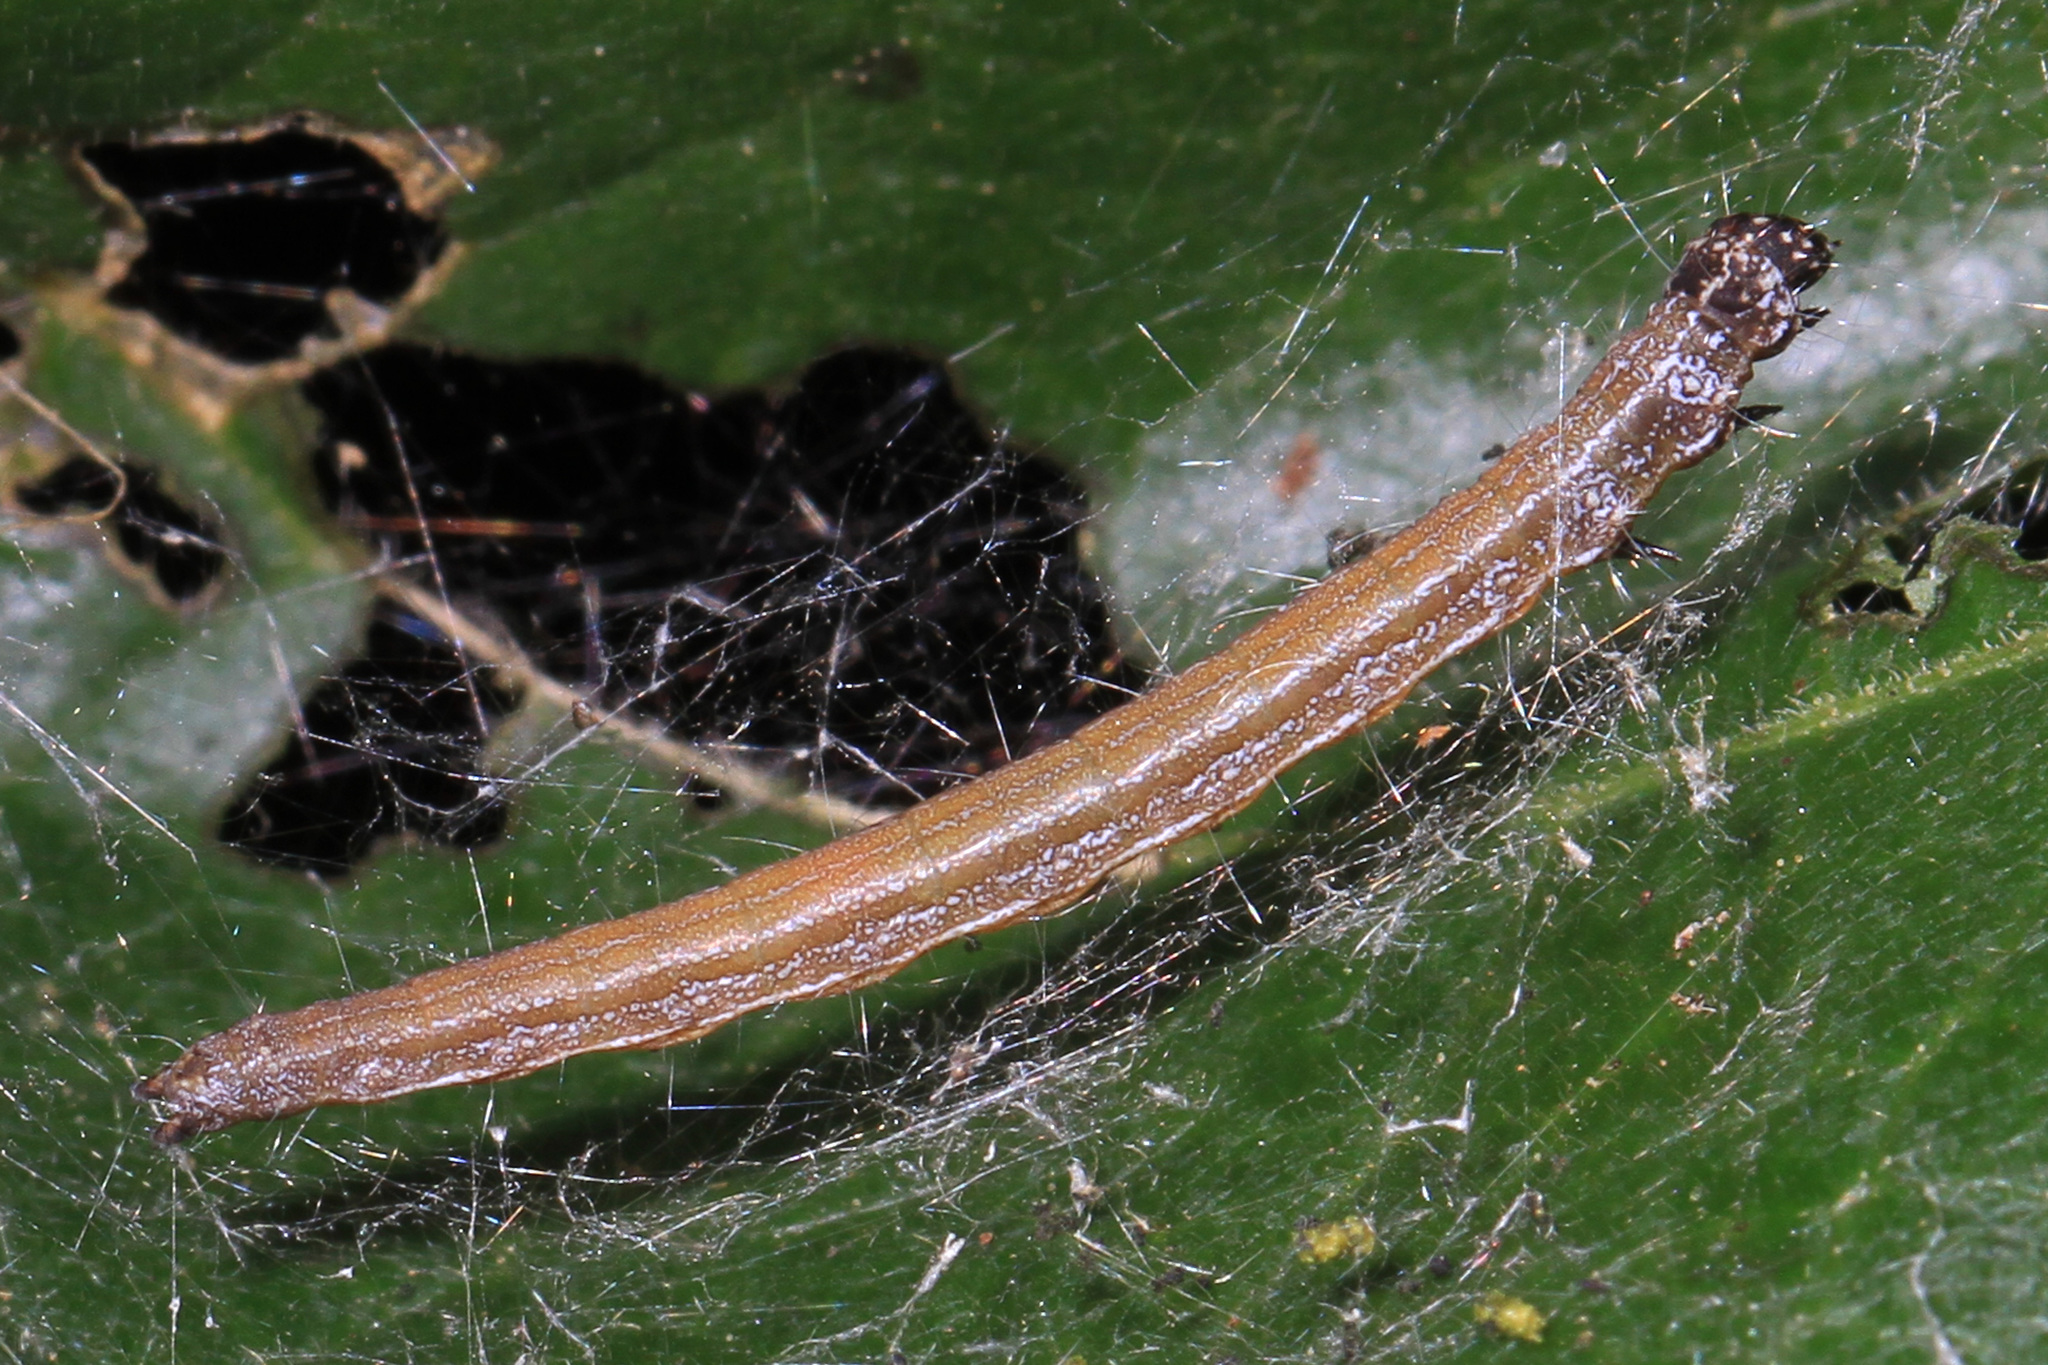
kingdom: Animalia
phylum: Arthropoda
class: Insecta
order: Lepidoptera
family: Attevidae
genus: Atteva
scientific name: Atteva punctella
